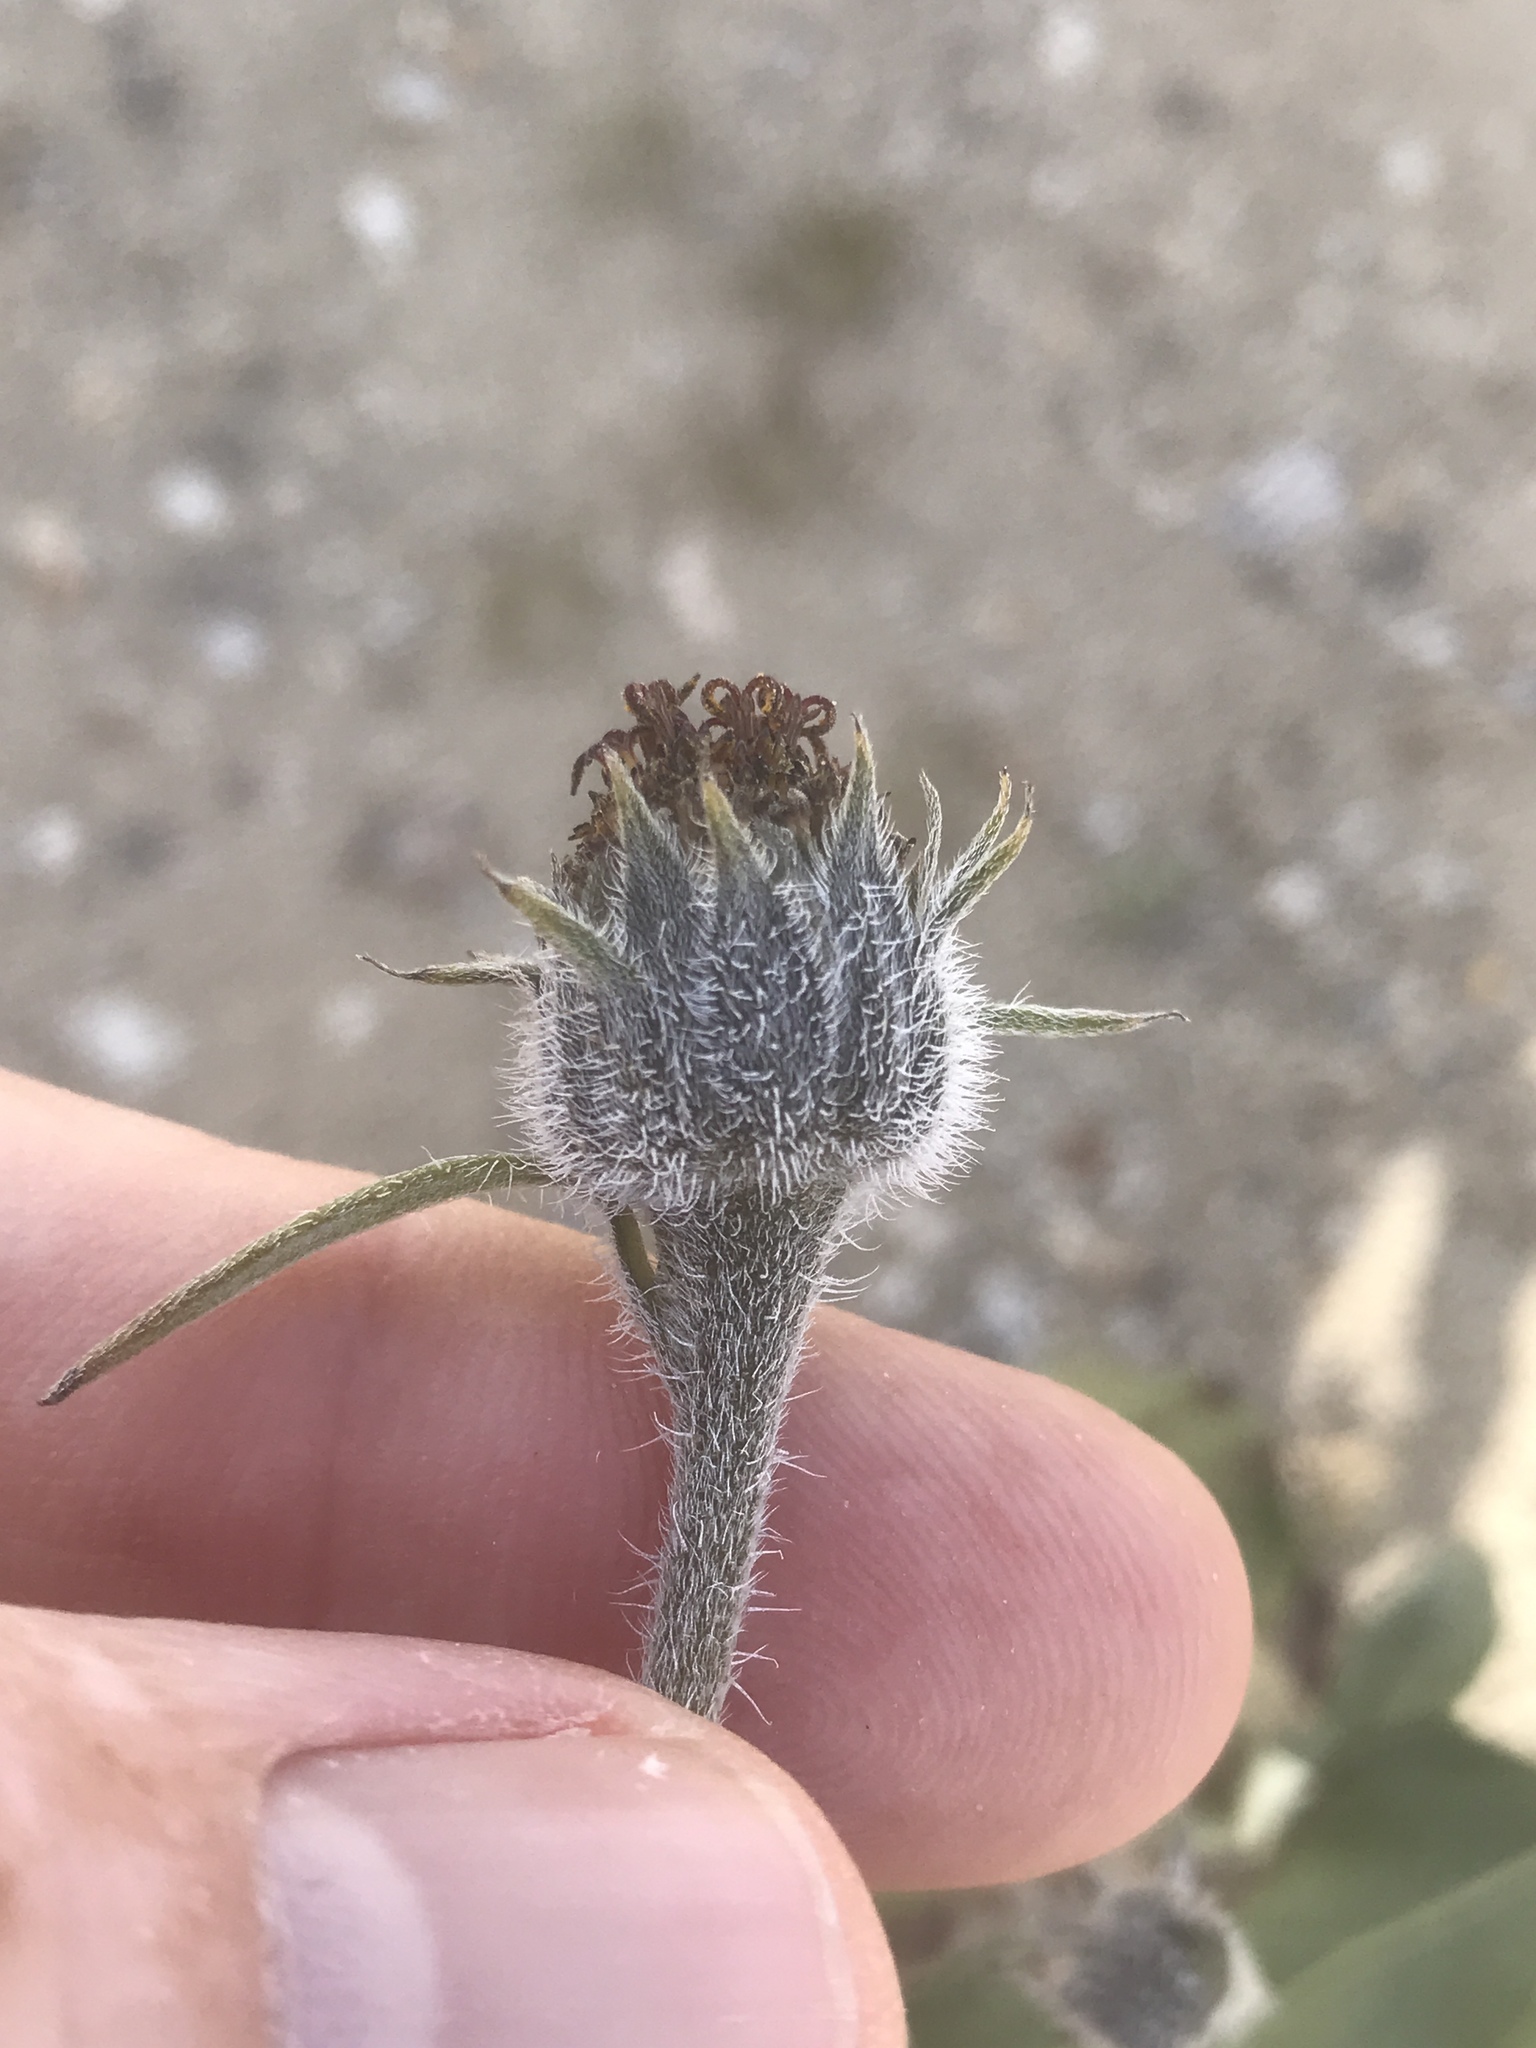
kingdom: Plantae
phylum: Tracheophyta
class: Magnoliopsida
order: Asterales
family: Asteraceae
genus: Helianthus
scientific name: Helianthus petiolaris
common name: Lesser sunflower
